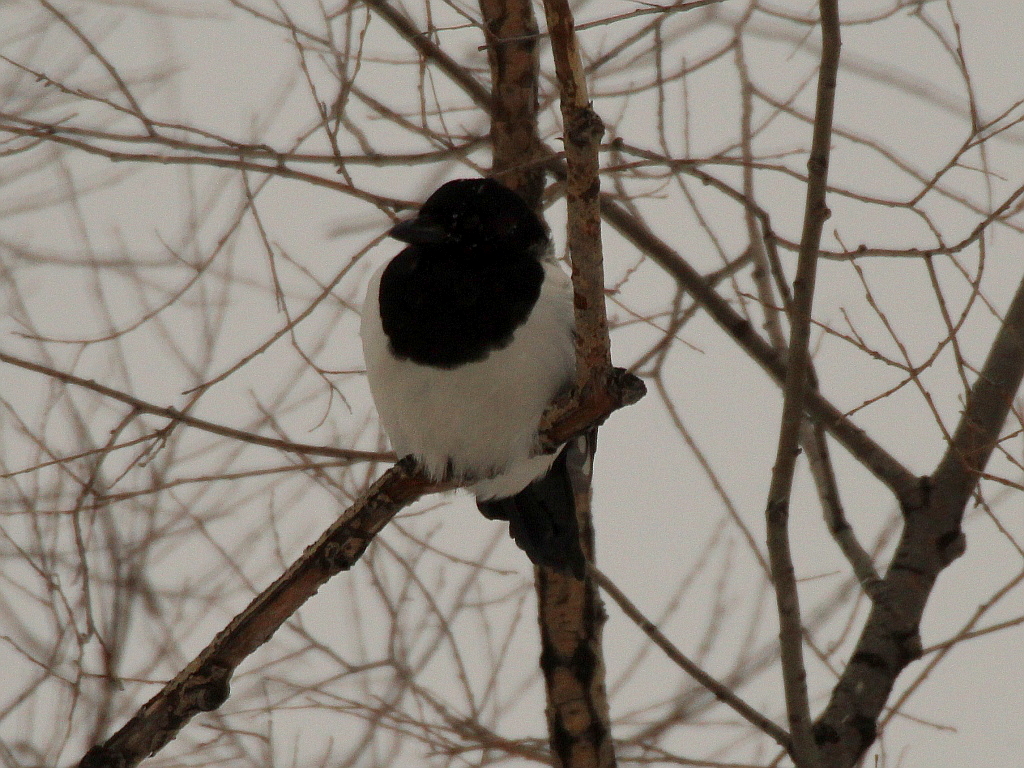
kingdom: Animalia
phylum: Chordata
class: Aves
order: Passeriformes
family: Corvidae
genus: Pica
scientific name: Pica pica
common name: Eurasian magpie
